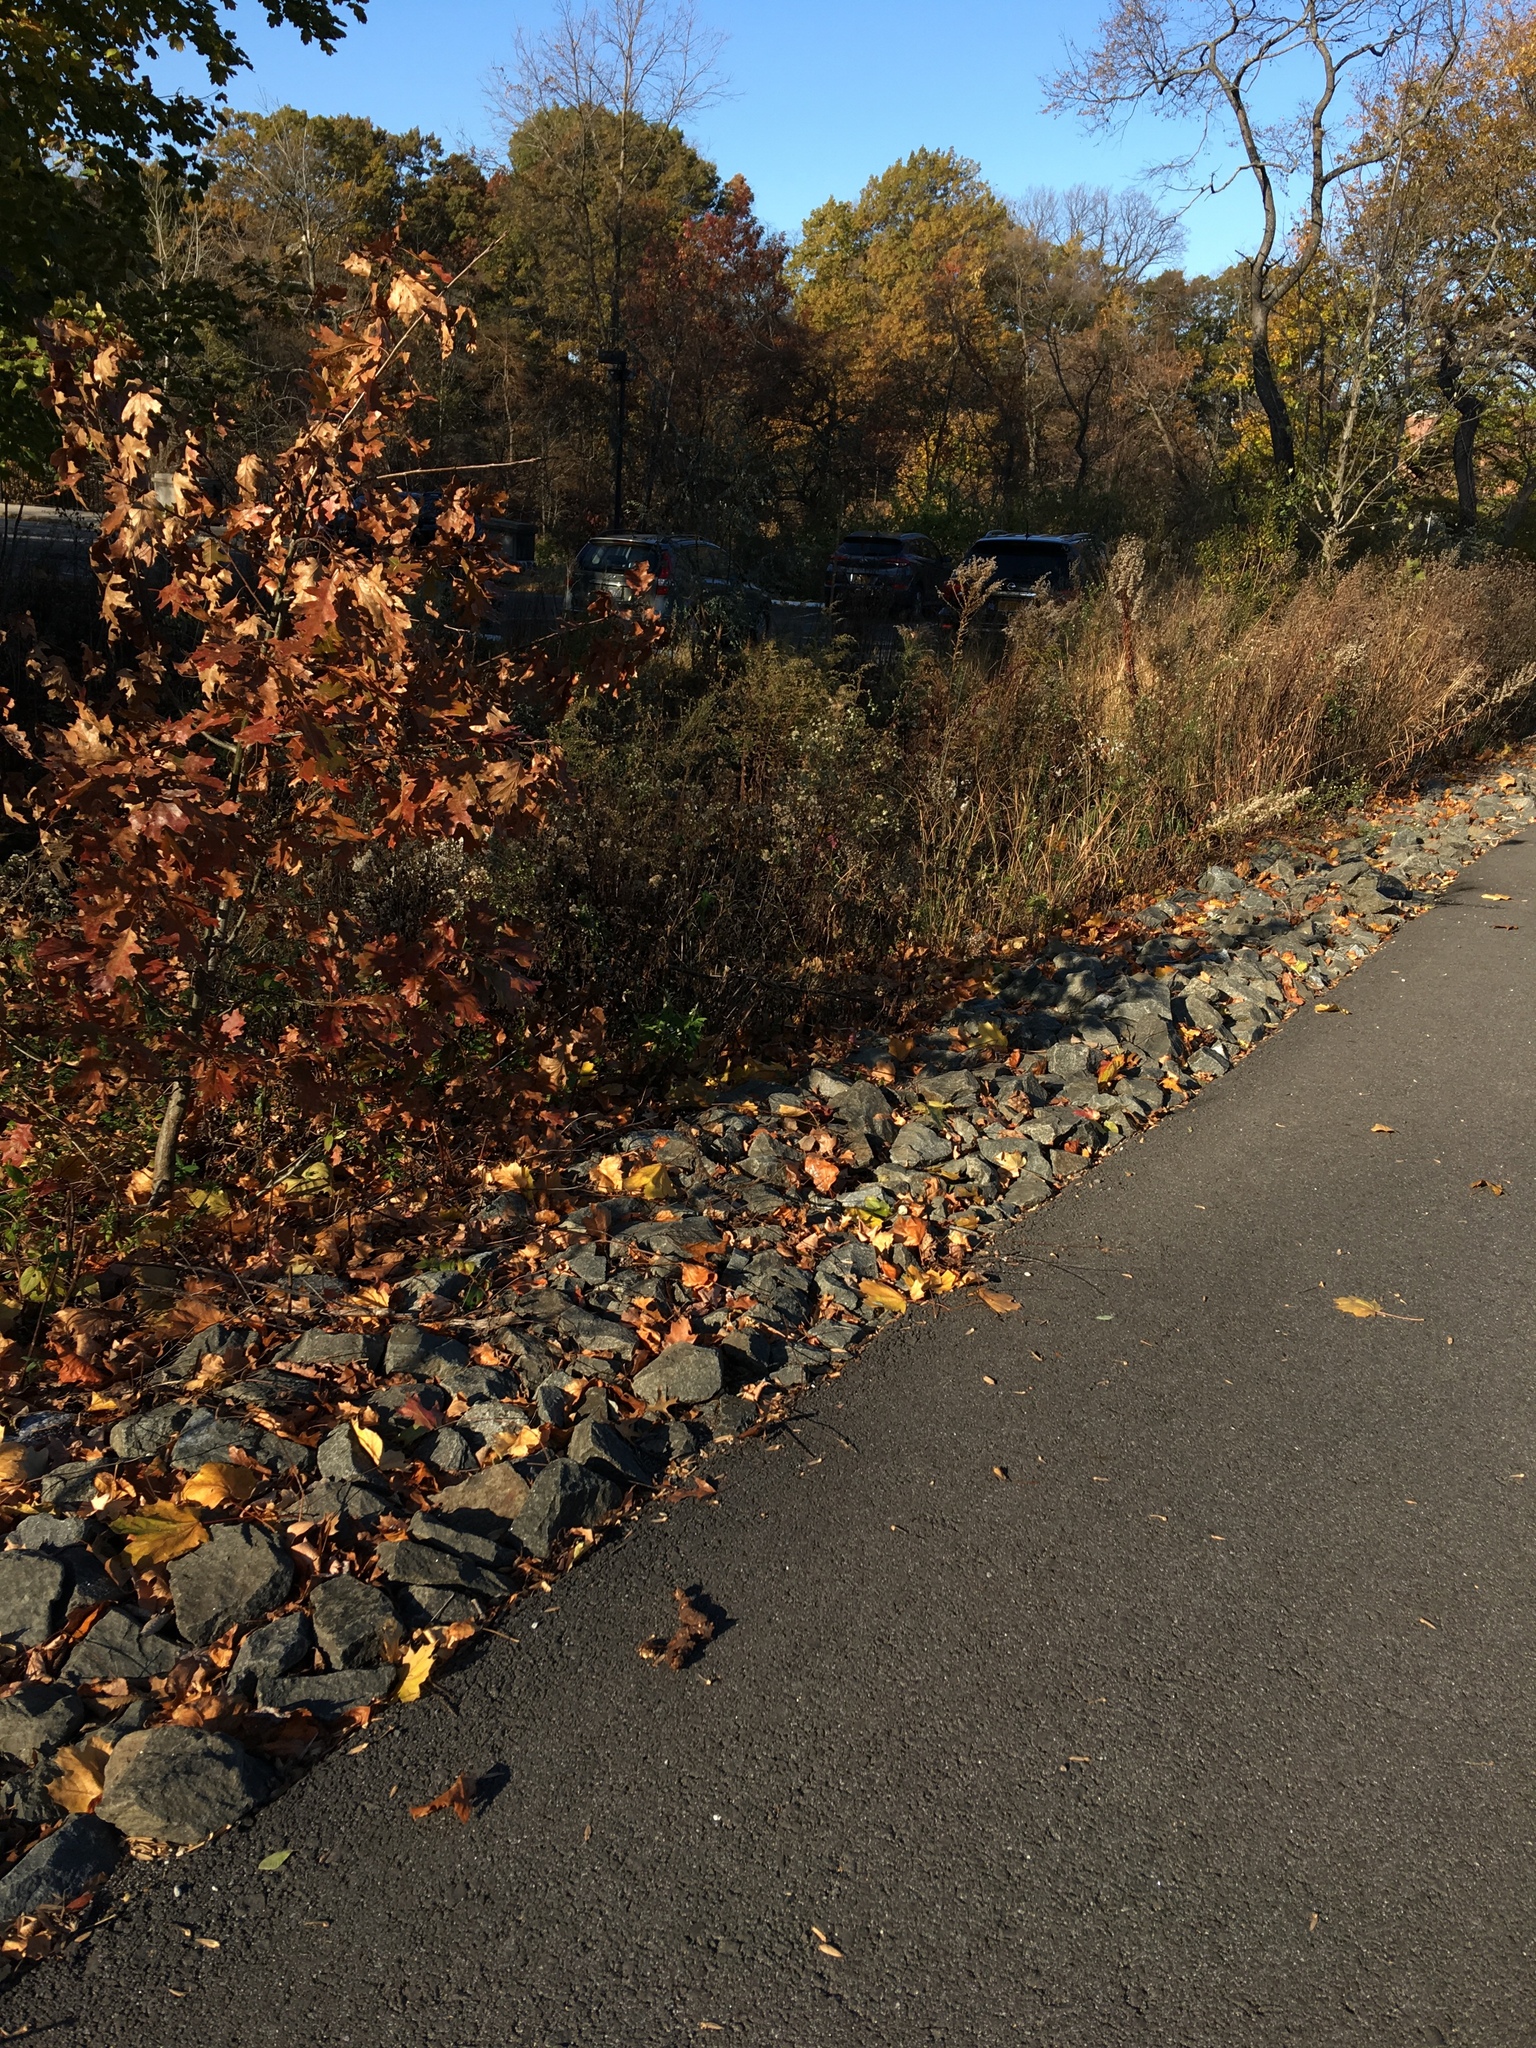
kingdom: Animalia
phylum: Chordata
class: Mammalia
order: Carnivora
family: Canidae
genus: Canis
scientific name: Canis latrans
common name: Coyote
